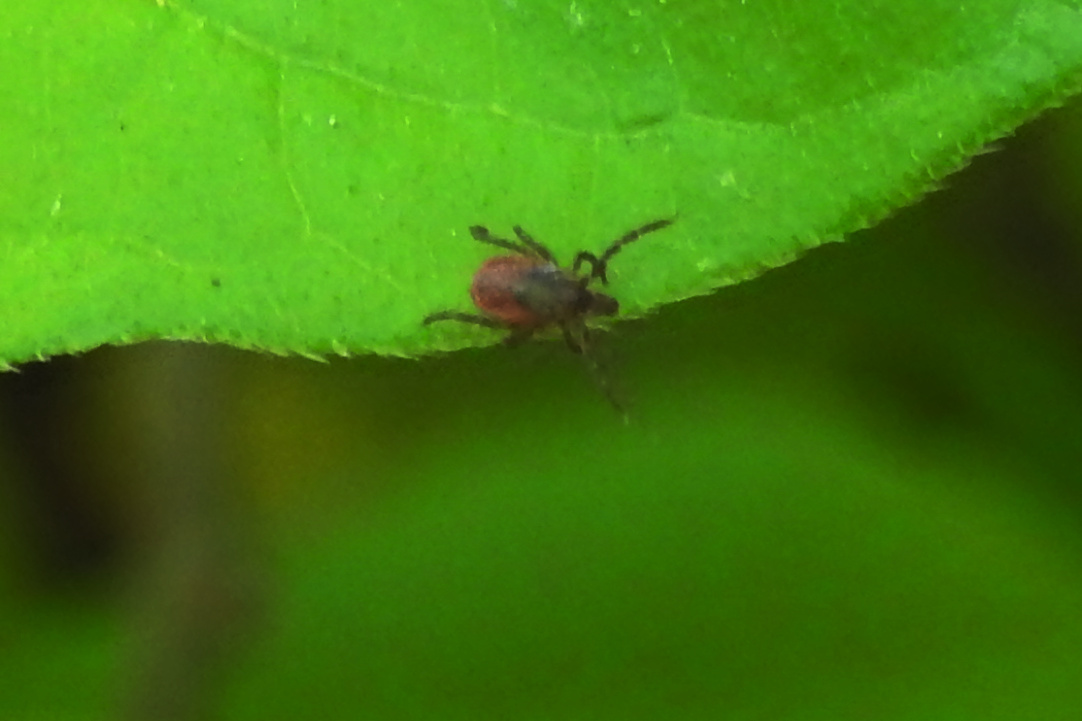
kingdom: Animalia
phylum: Arthropoda
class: Arachnida
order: Ixodida
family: Ixodidae
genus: Ixodes
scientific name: Ixodes scapularis
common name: Black legged tick
